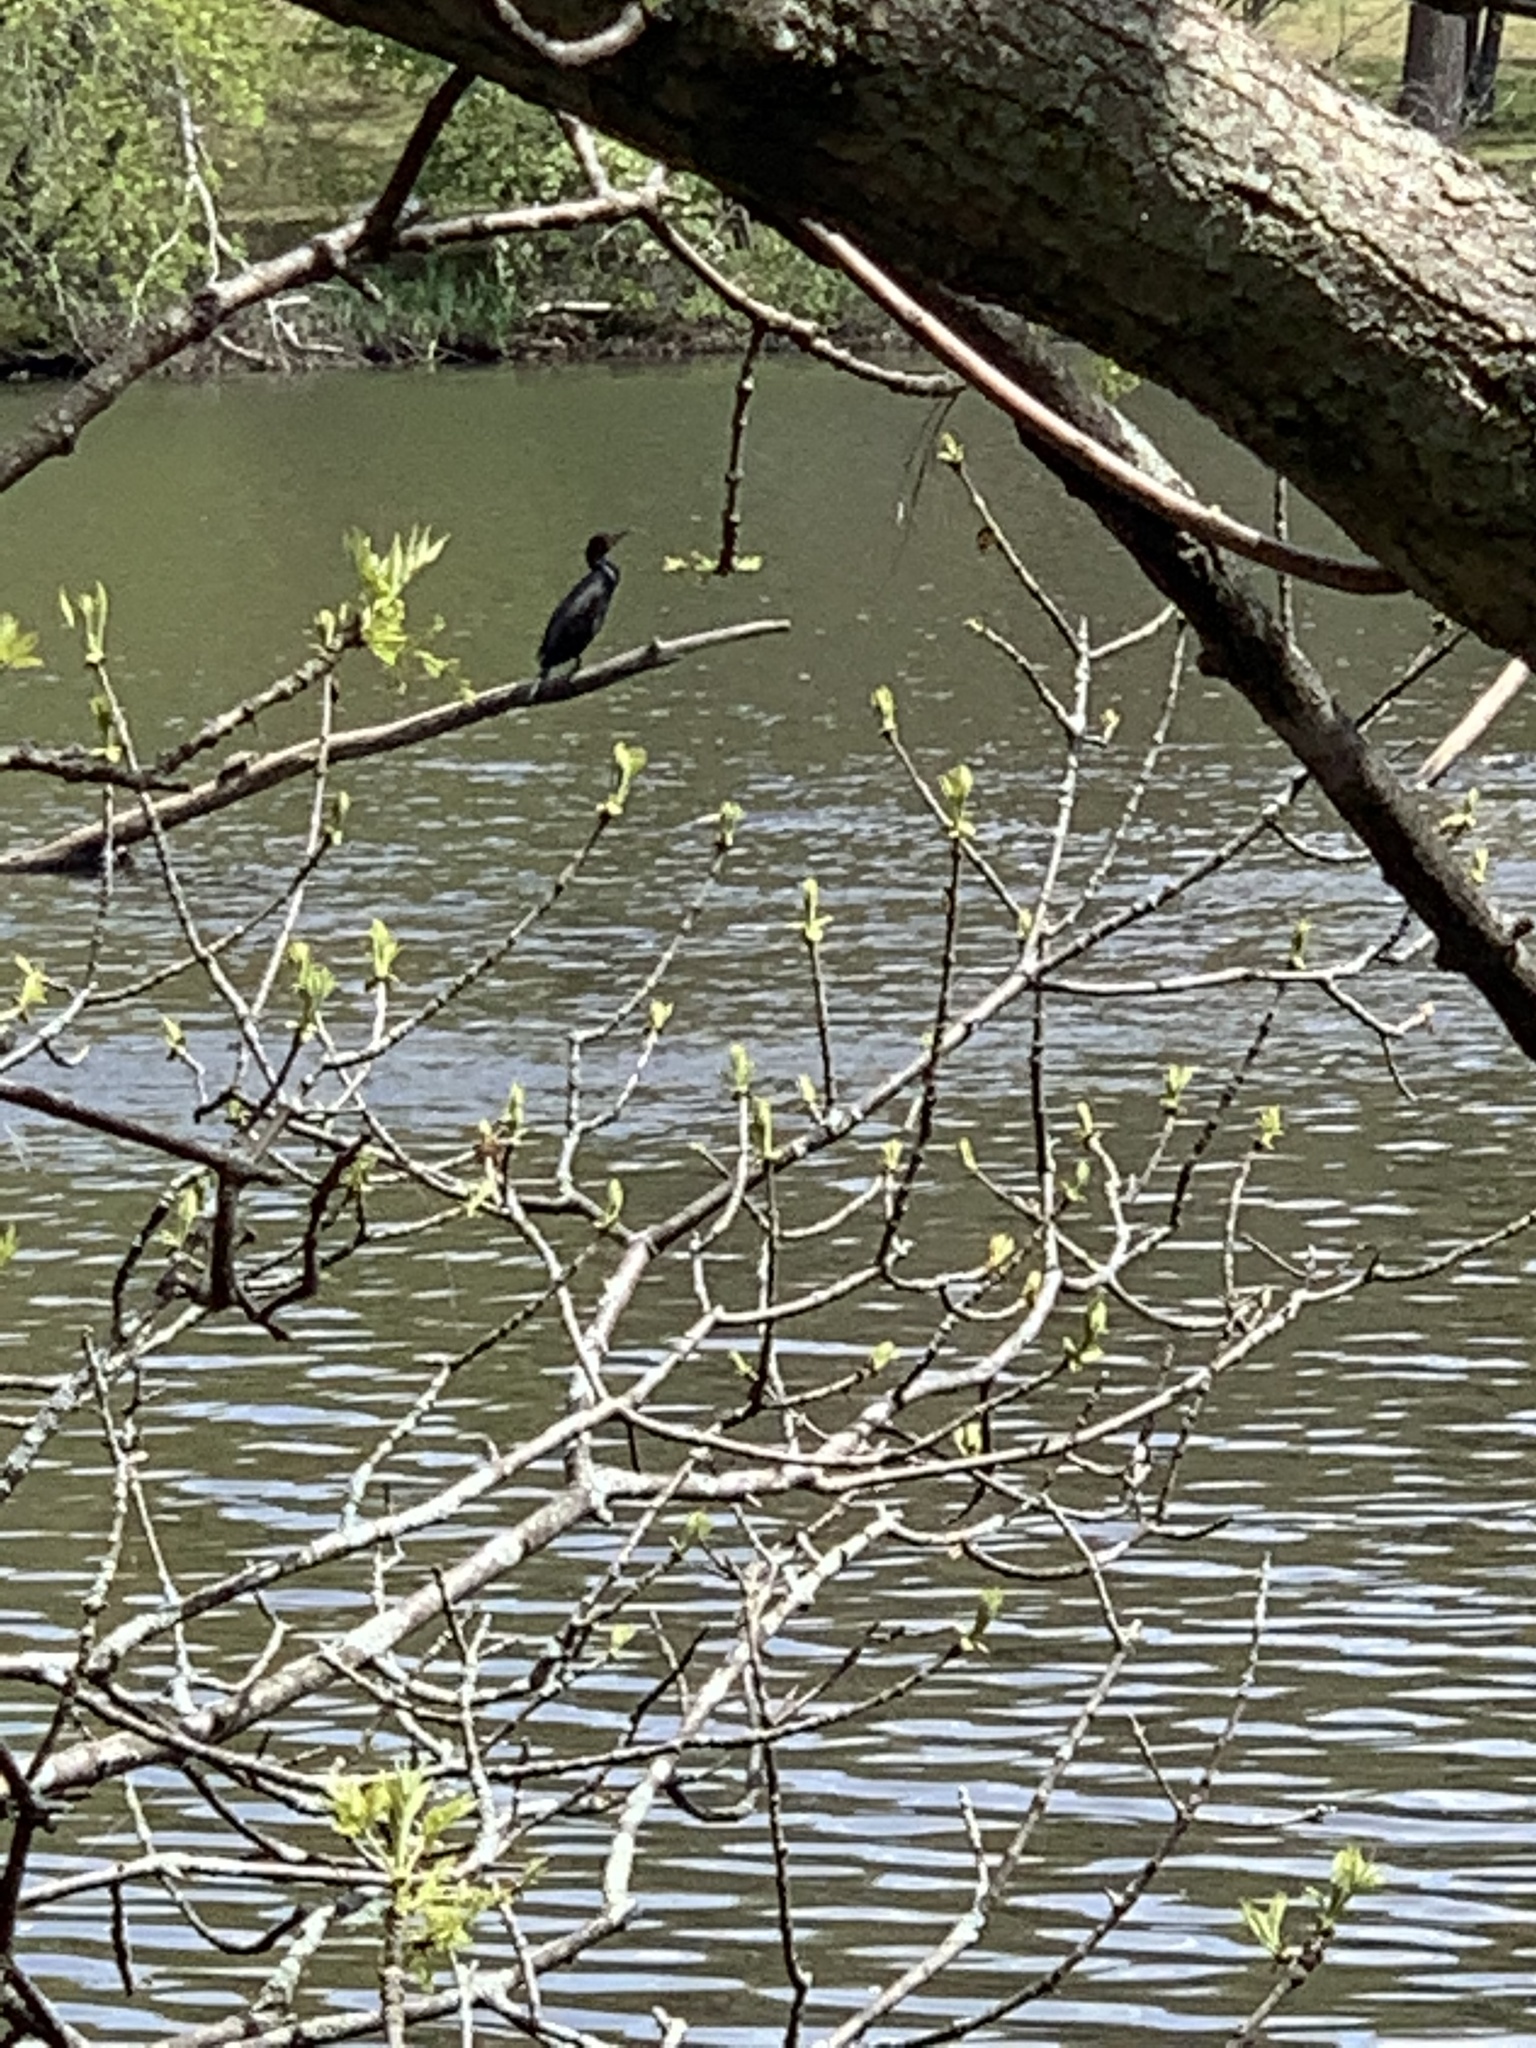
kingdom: Animalia
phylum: Chordata
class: Aves
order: Suliformes
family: Phalacrocoracidae
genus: Phalacrocorax
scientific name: Phalacrocorax auritus
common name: Double-crested cormorant
